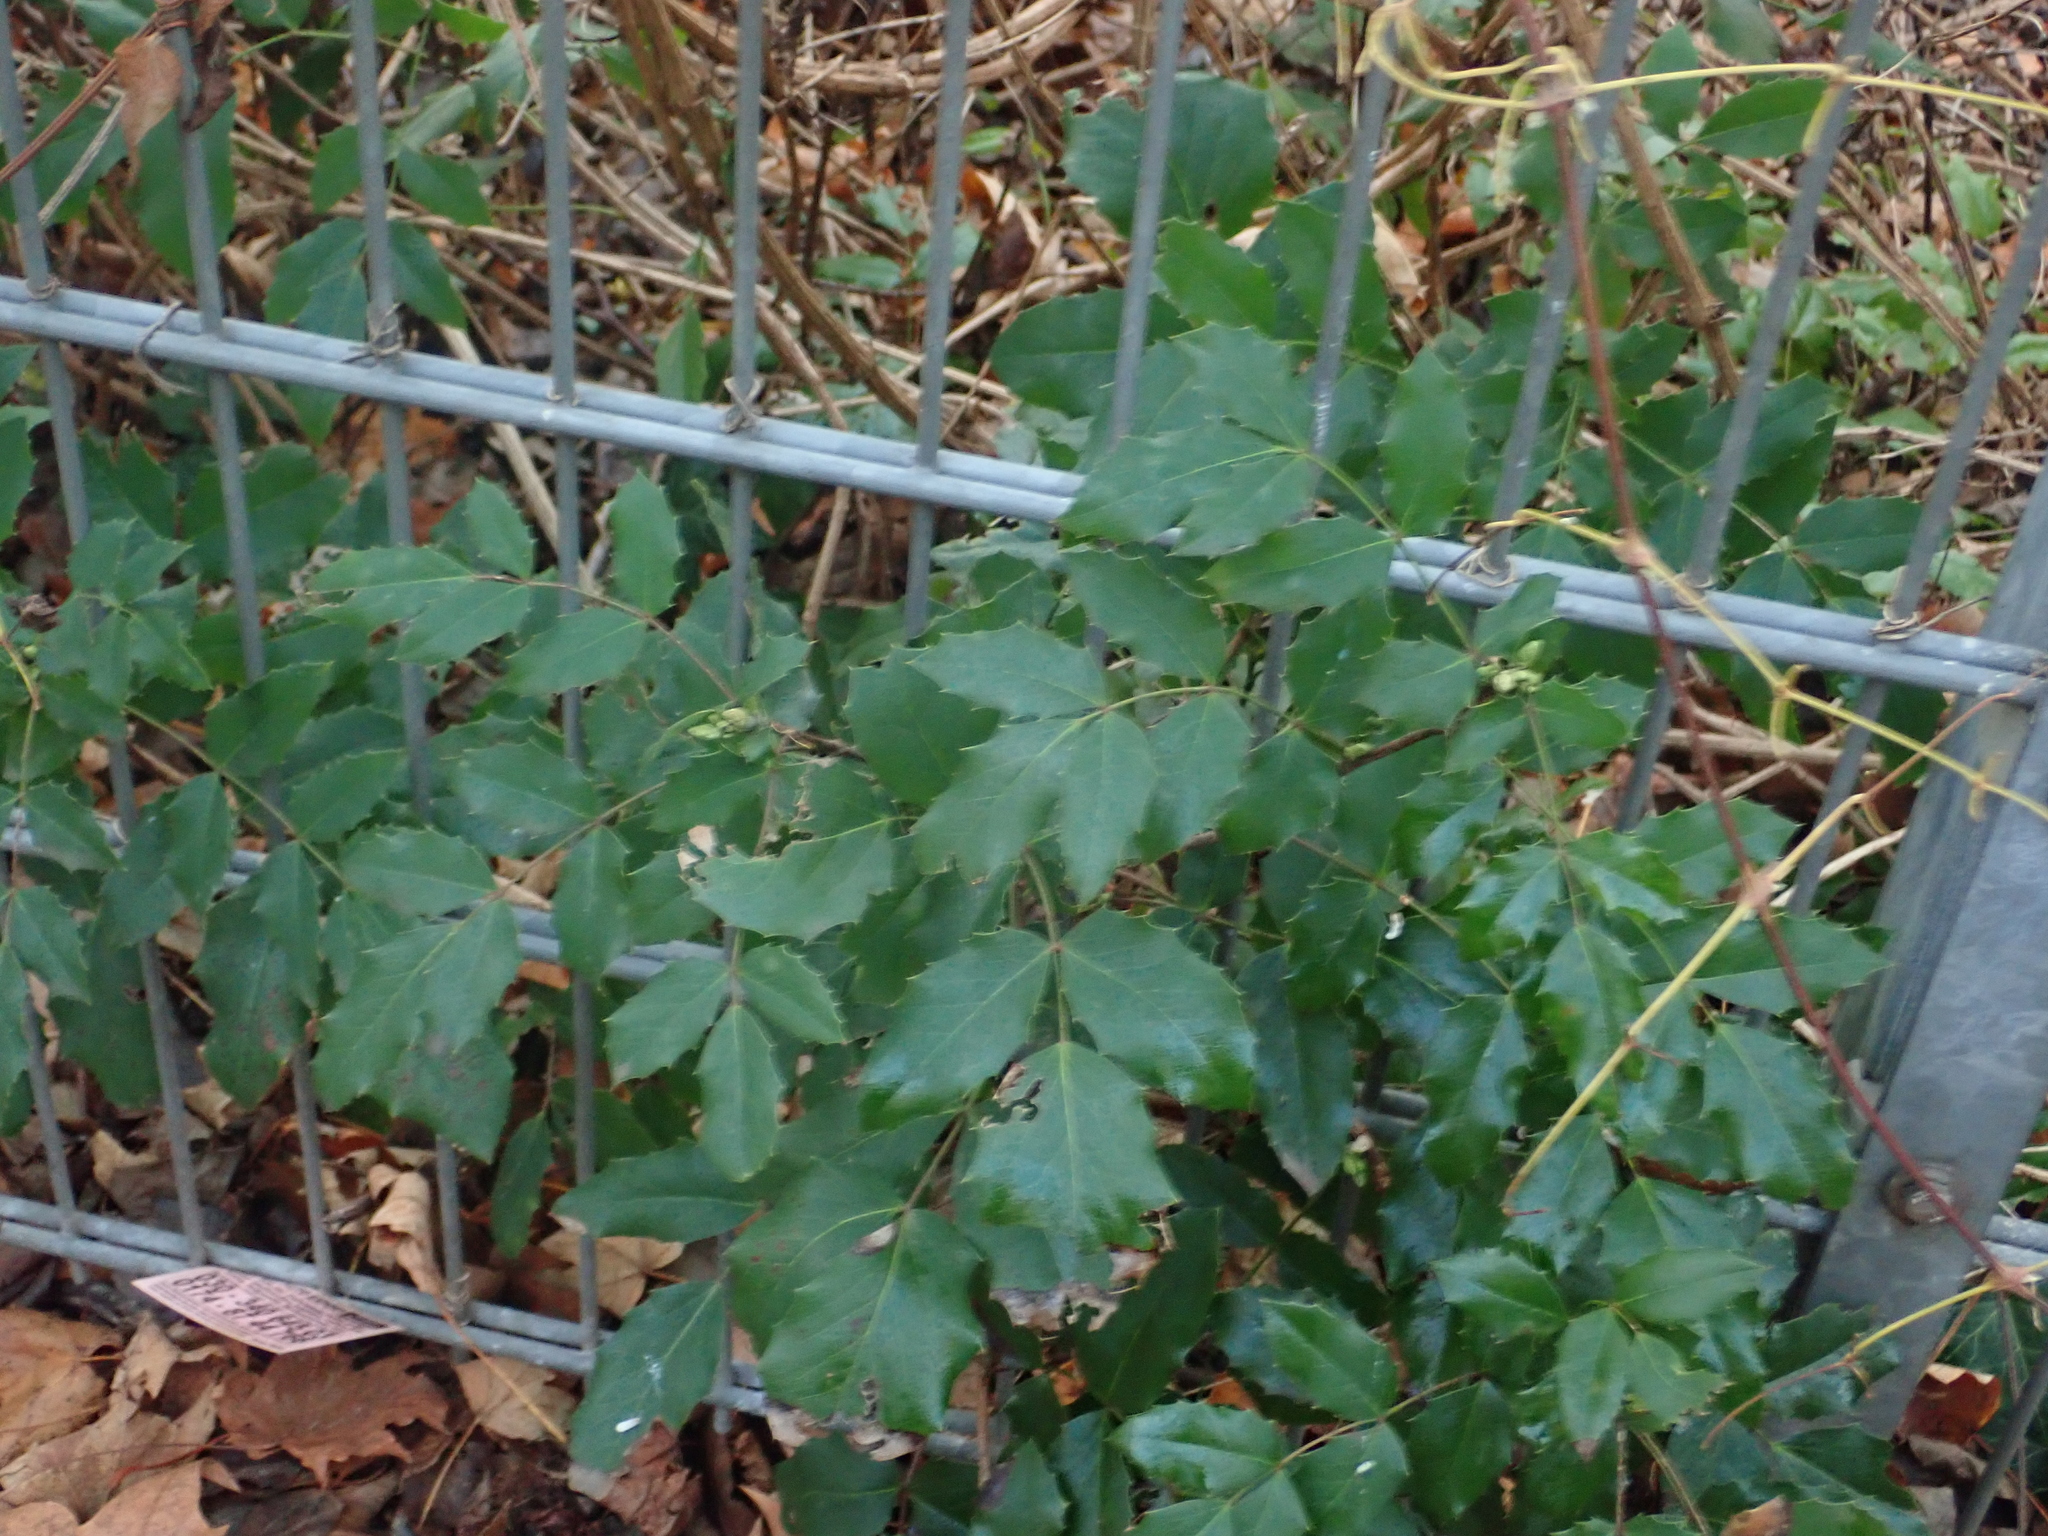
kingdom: Plantae
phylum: Tracheophyta
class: Magnoliopsida
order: Ranunculales
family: Berberidaceae
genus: Mahonia
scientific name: Mahonia aquifolium
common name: Oregon-grape
